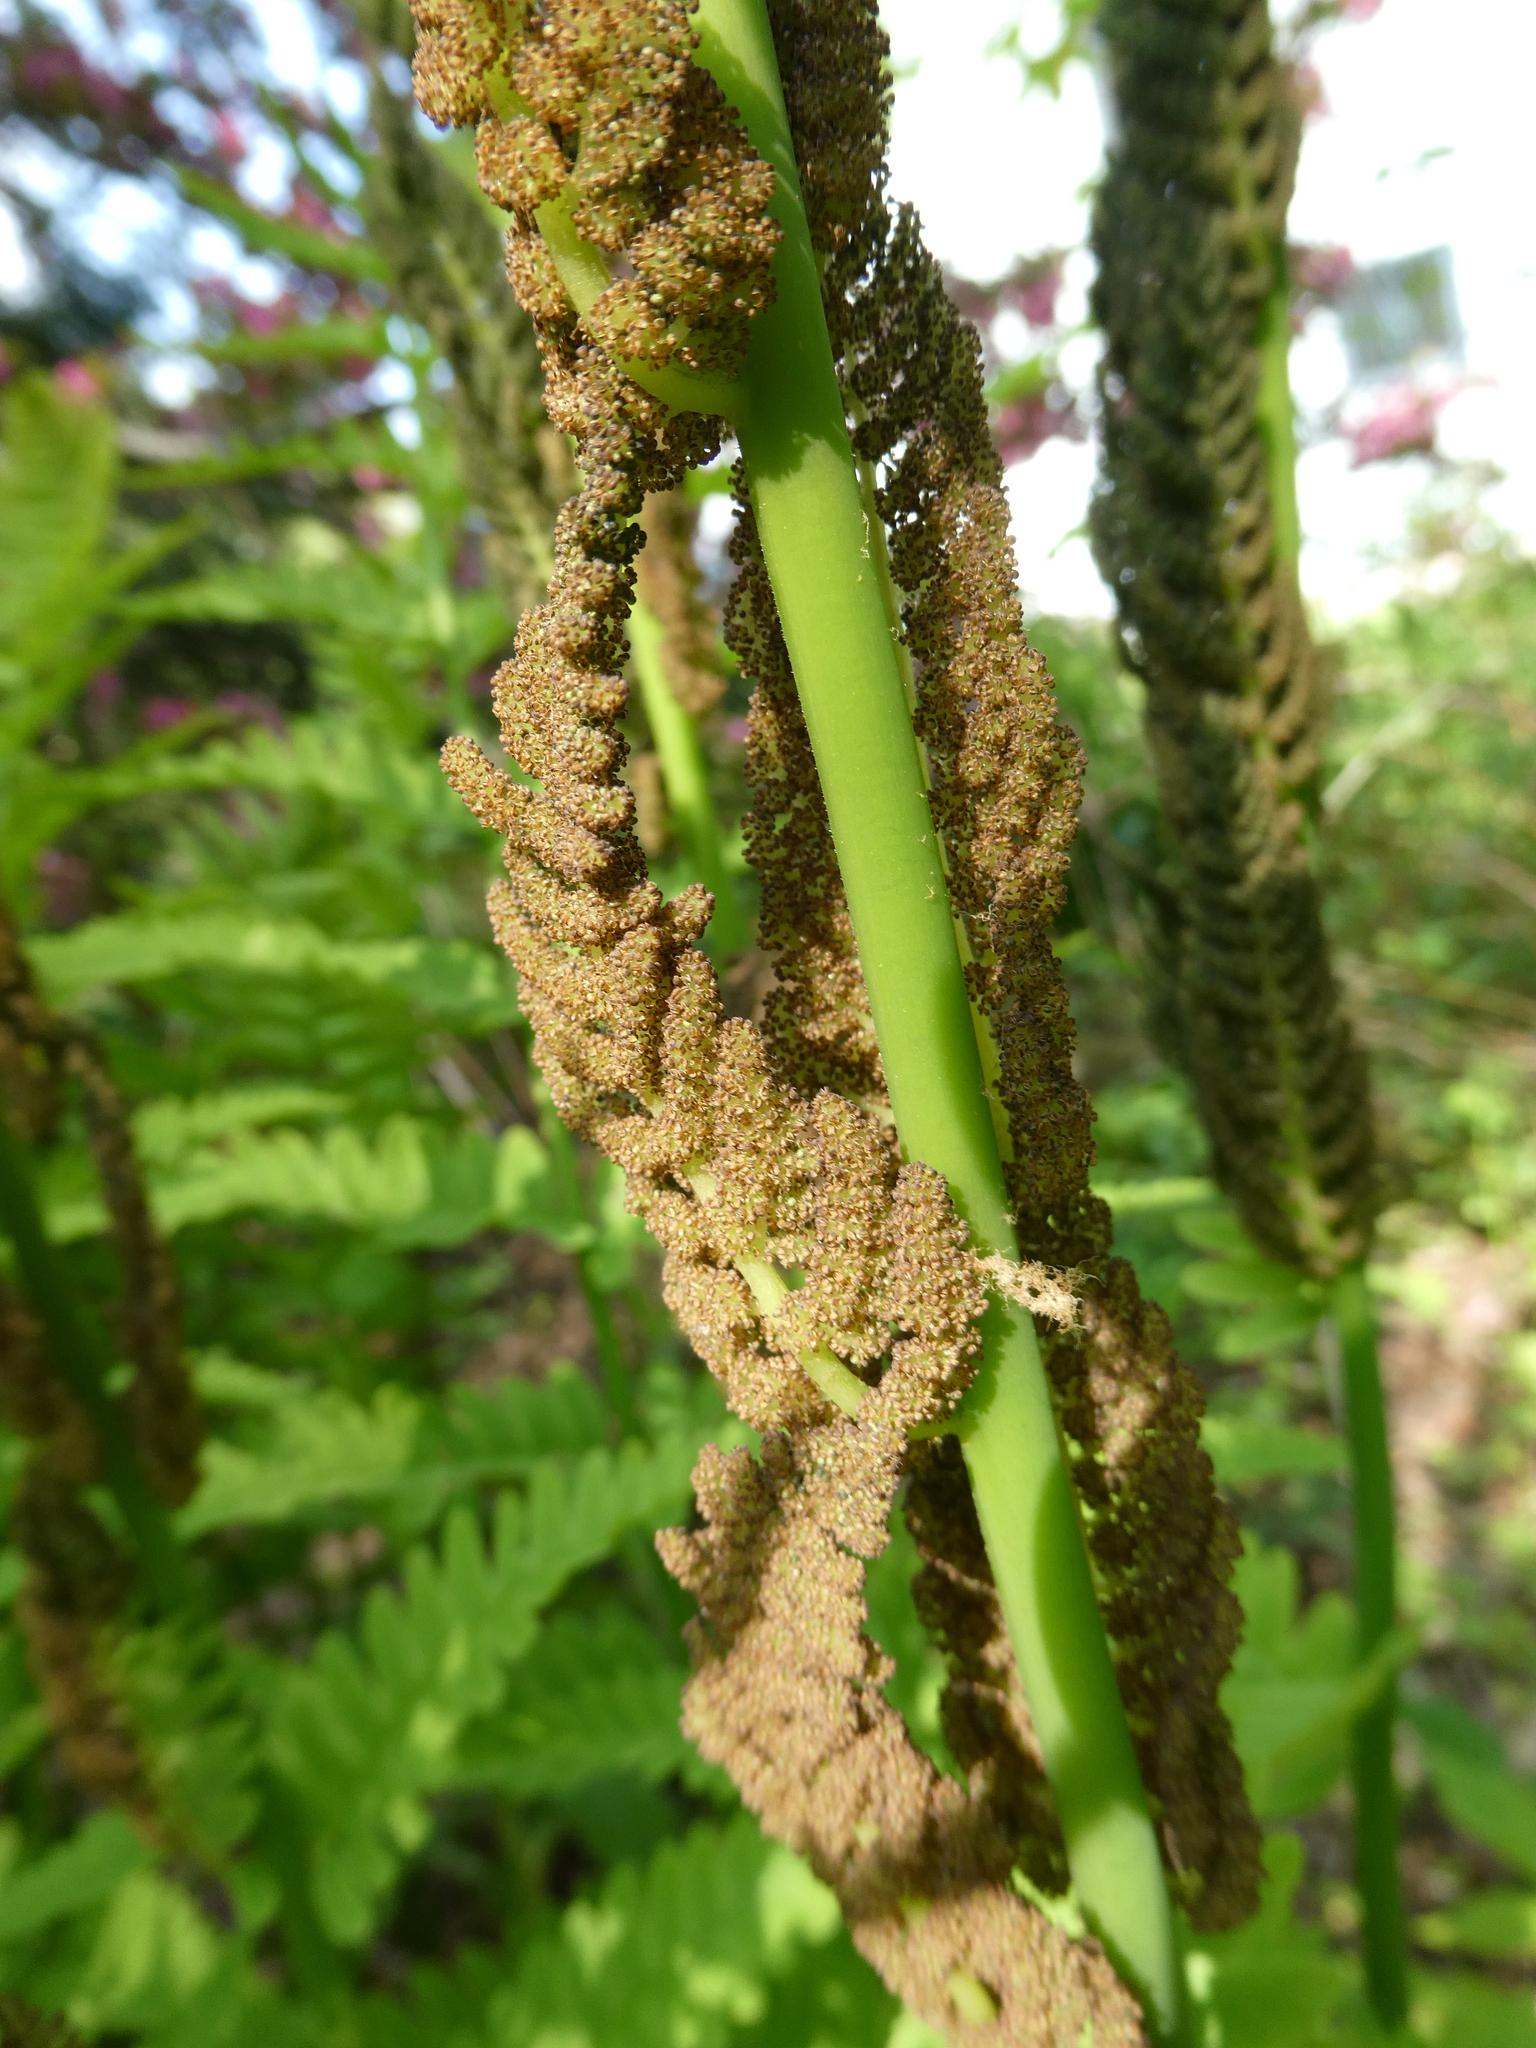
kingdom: Plantae
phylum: Tracheophyta
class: Polypodiopsida
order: Osmundales
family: Osmundaceae
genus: Claytosmunda
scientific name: Claytosmunda claytoniana
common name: Clayton's fern
